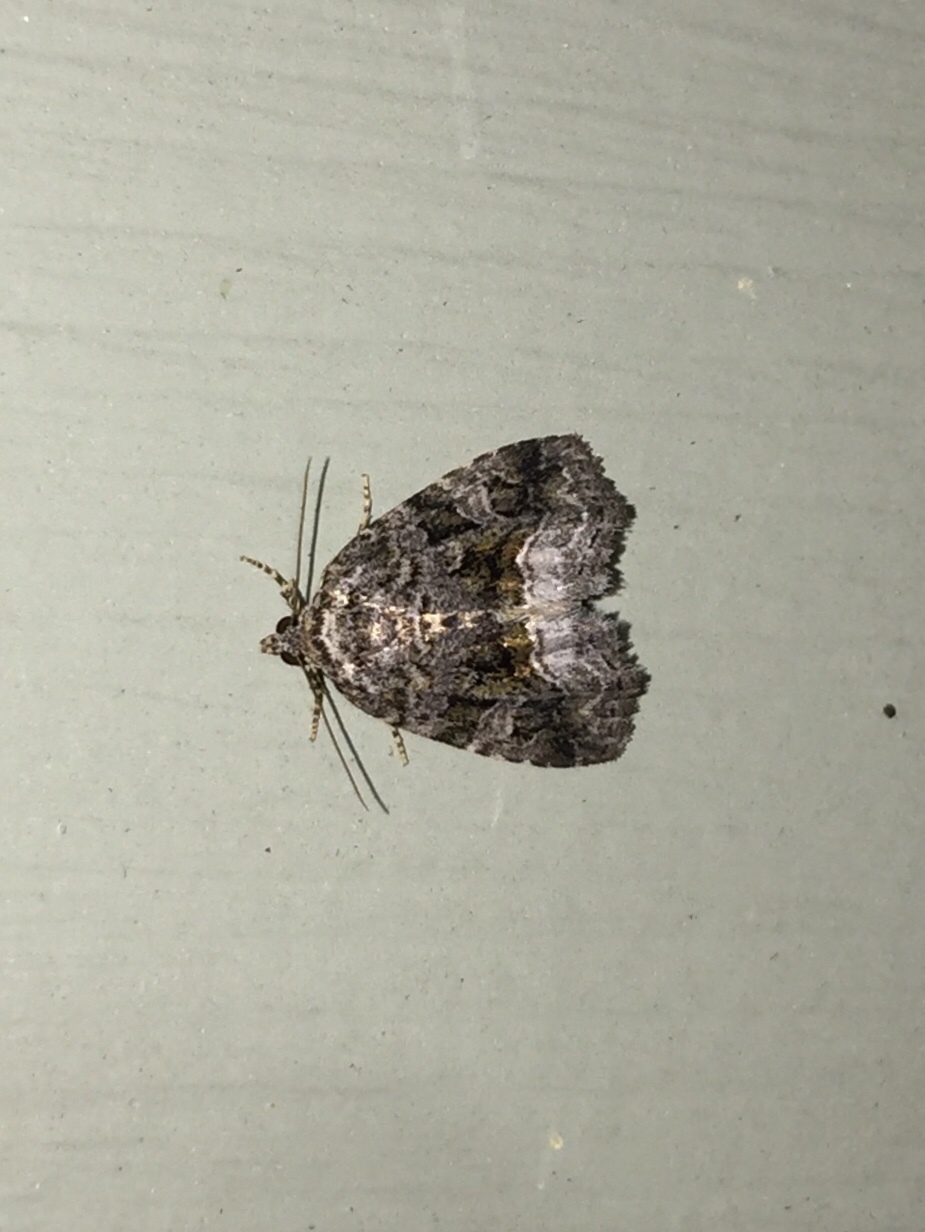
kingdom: Animalia
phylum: Arthropoda
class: Insecta
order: Lepidoptera
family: Noctuidae
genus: Protodeltote
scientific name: Protodeltote muscosula
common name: Large mossy glyph
